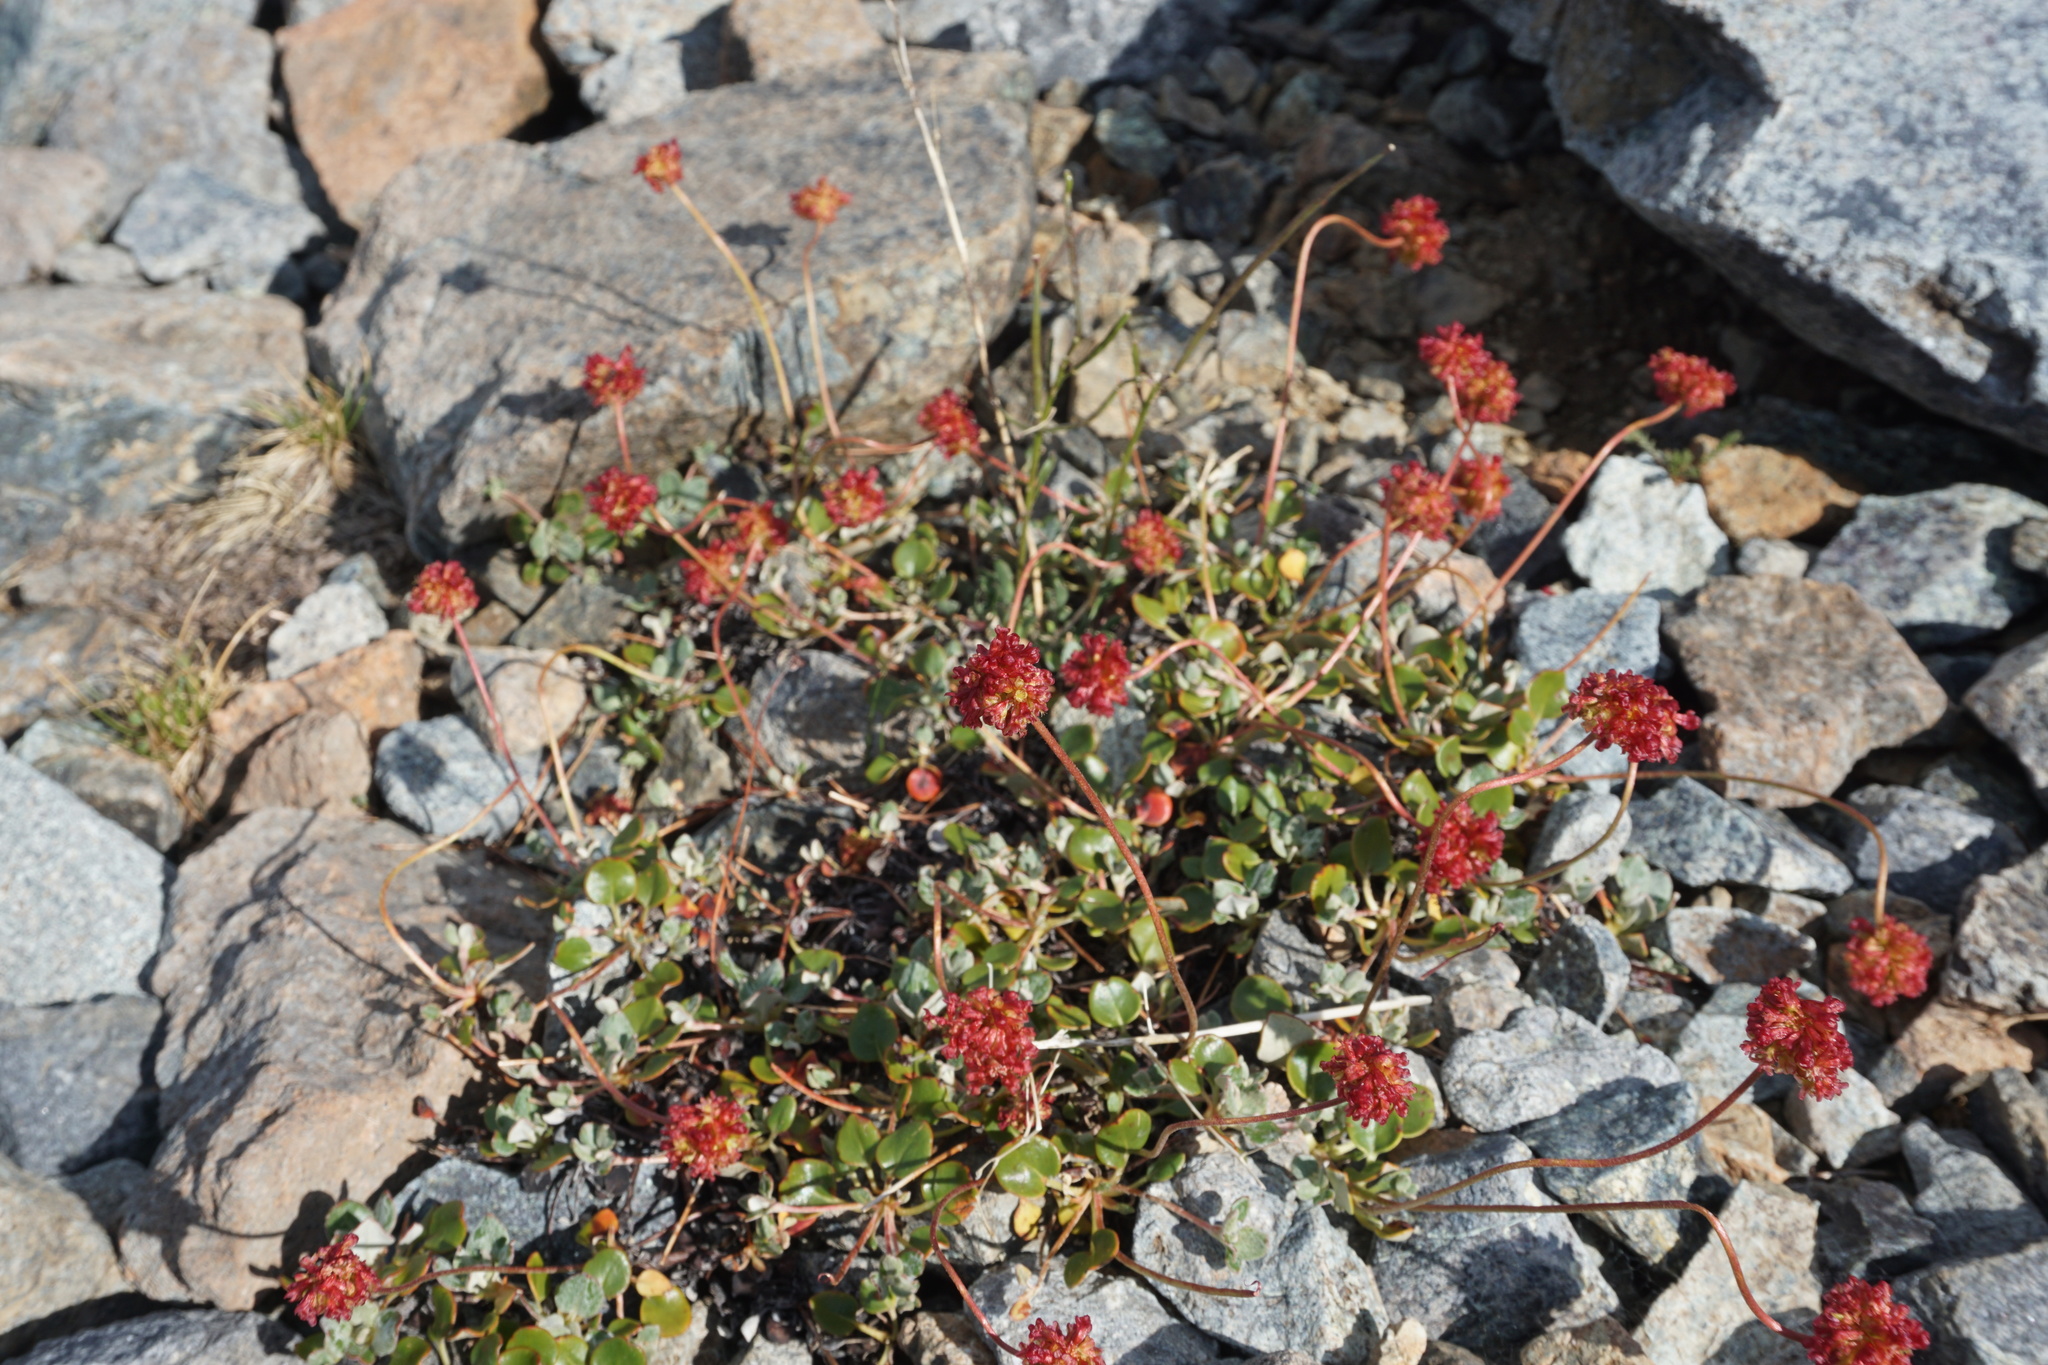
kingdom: Plantae
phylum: Tracheophyta
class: Magnoliopsida
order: Caryophyllales
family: Polygonaceae
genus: Eriogonum
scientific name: Eriogonum marifolium
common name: Marum-leaf wild buckwheat
